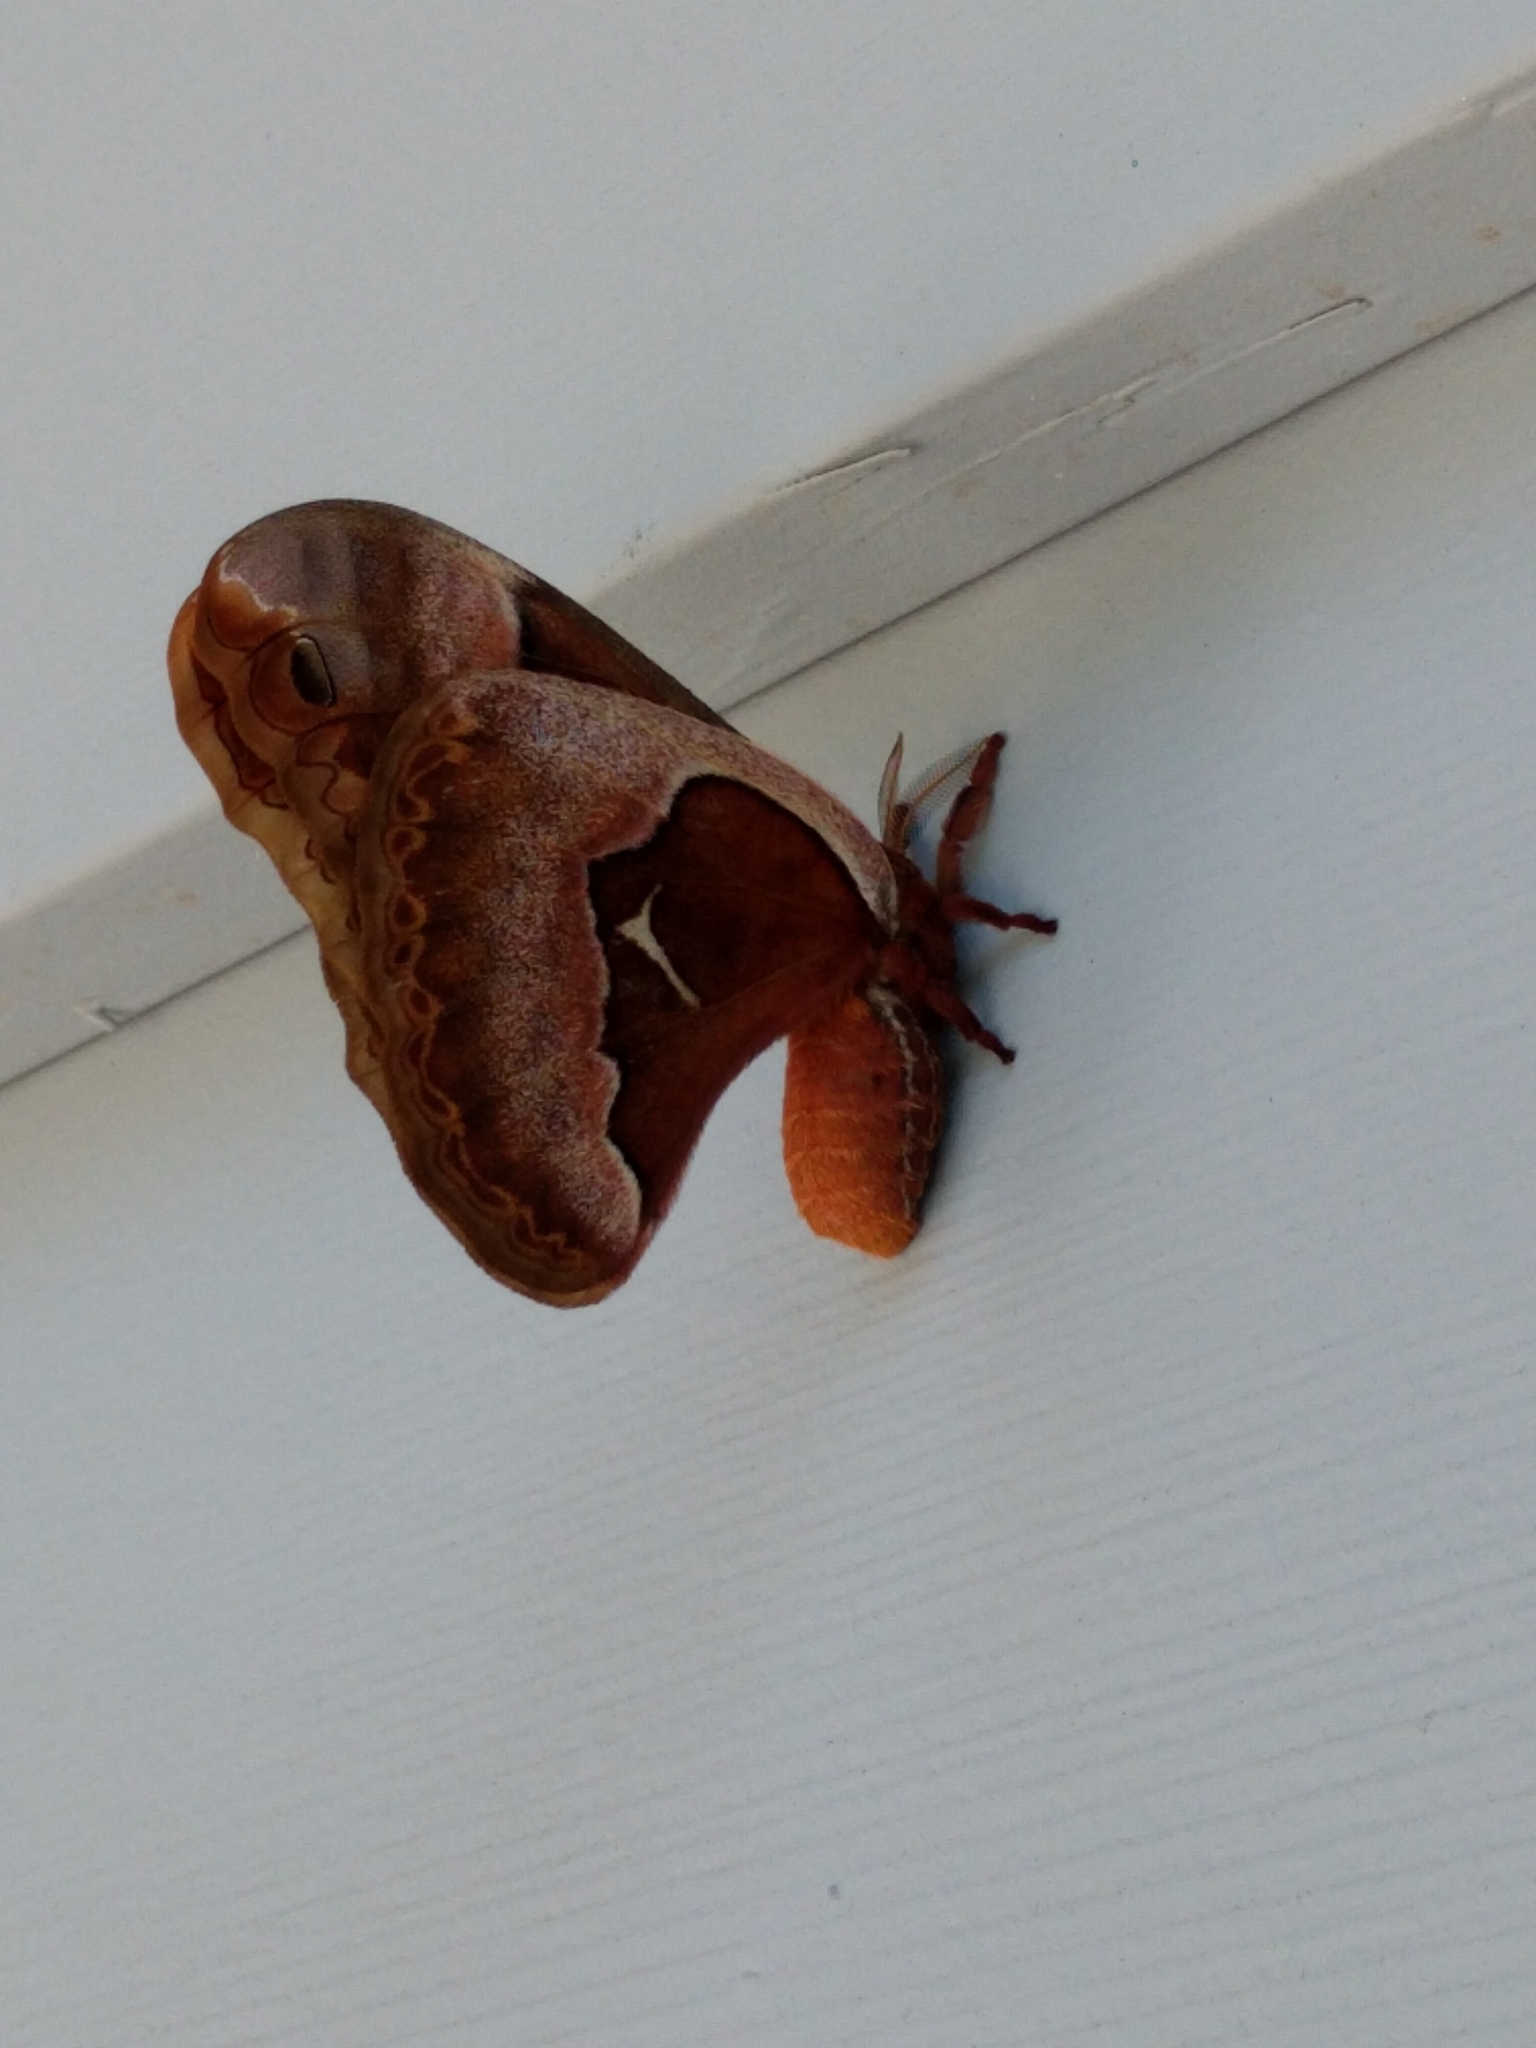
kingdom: Animalia
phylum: Arthropoda
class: Insecta
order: Lepidoptera
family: Saturniidae
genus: Callosamia
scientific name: Callosamia promethea
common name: Promethea silkmoth
